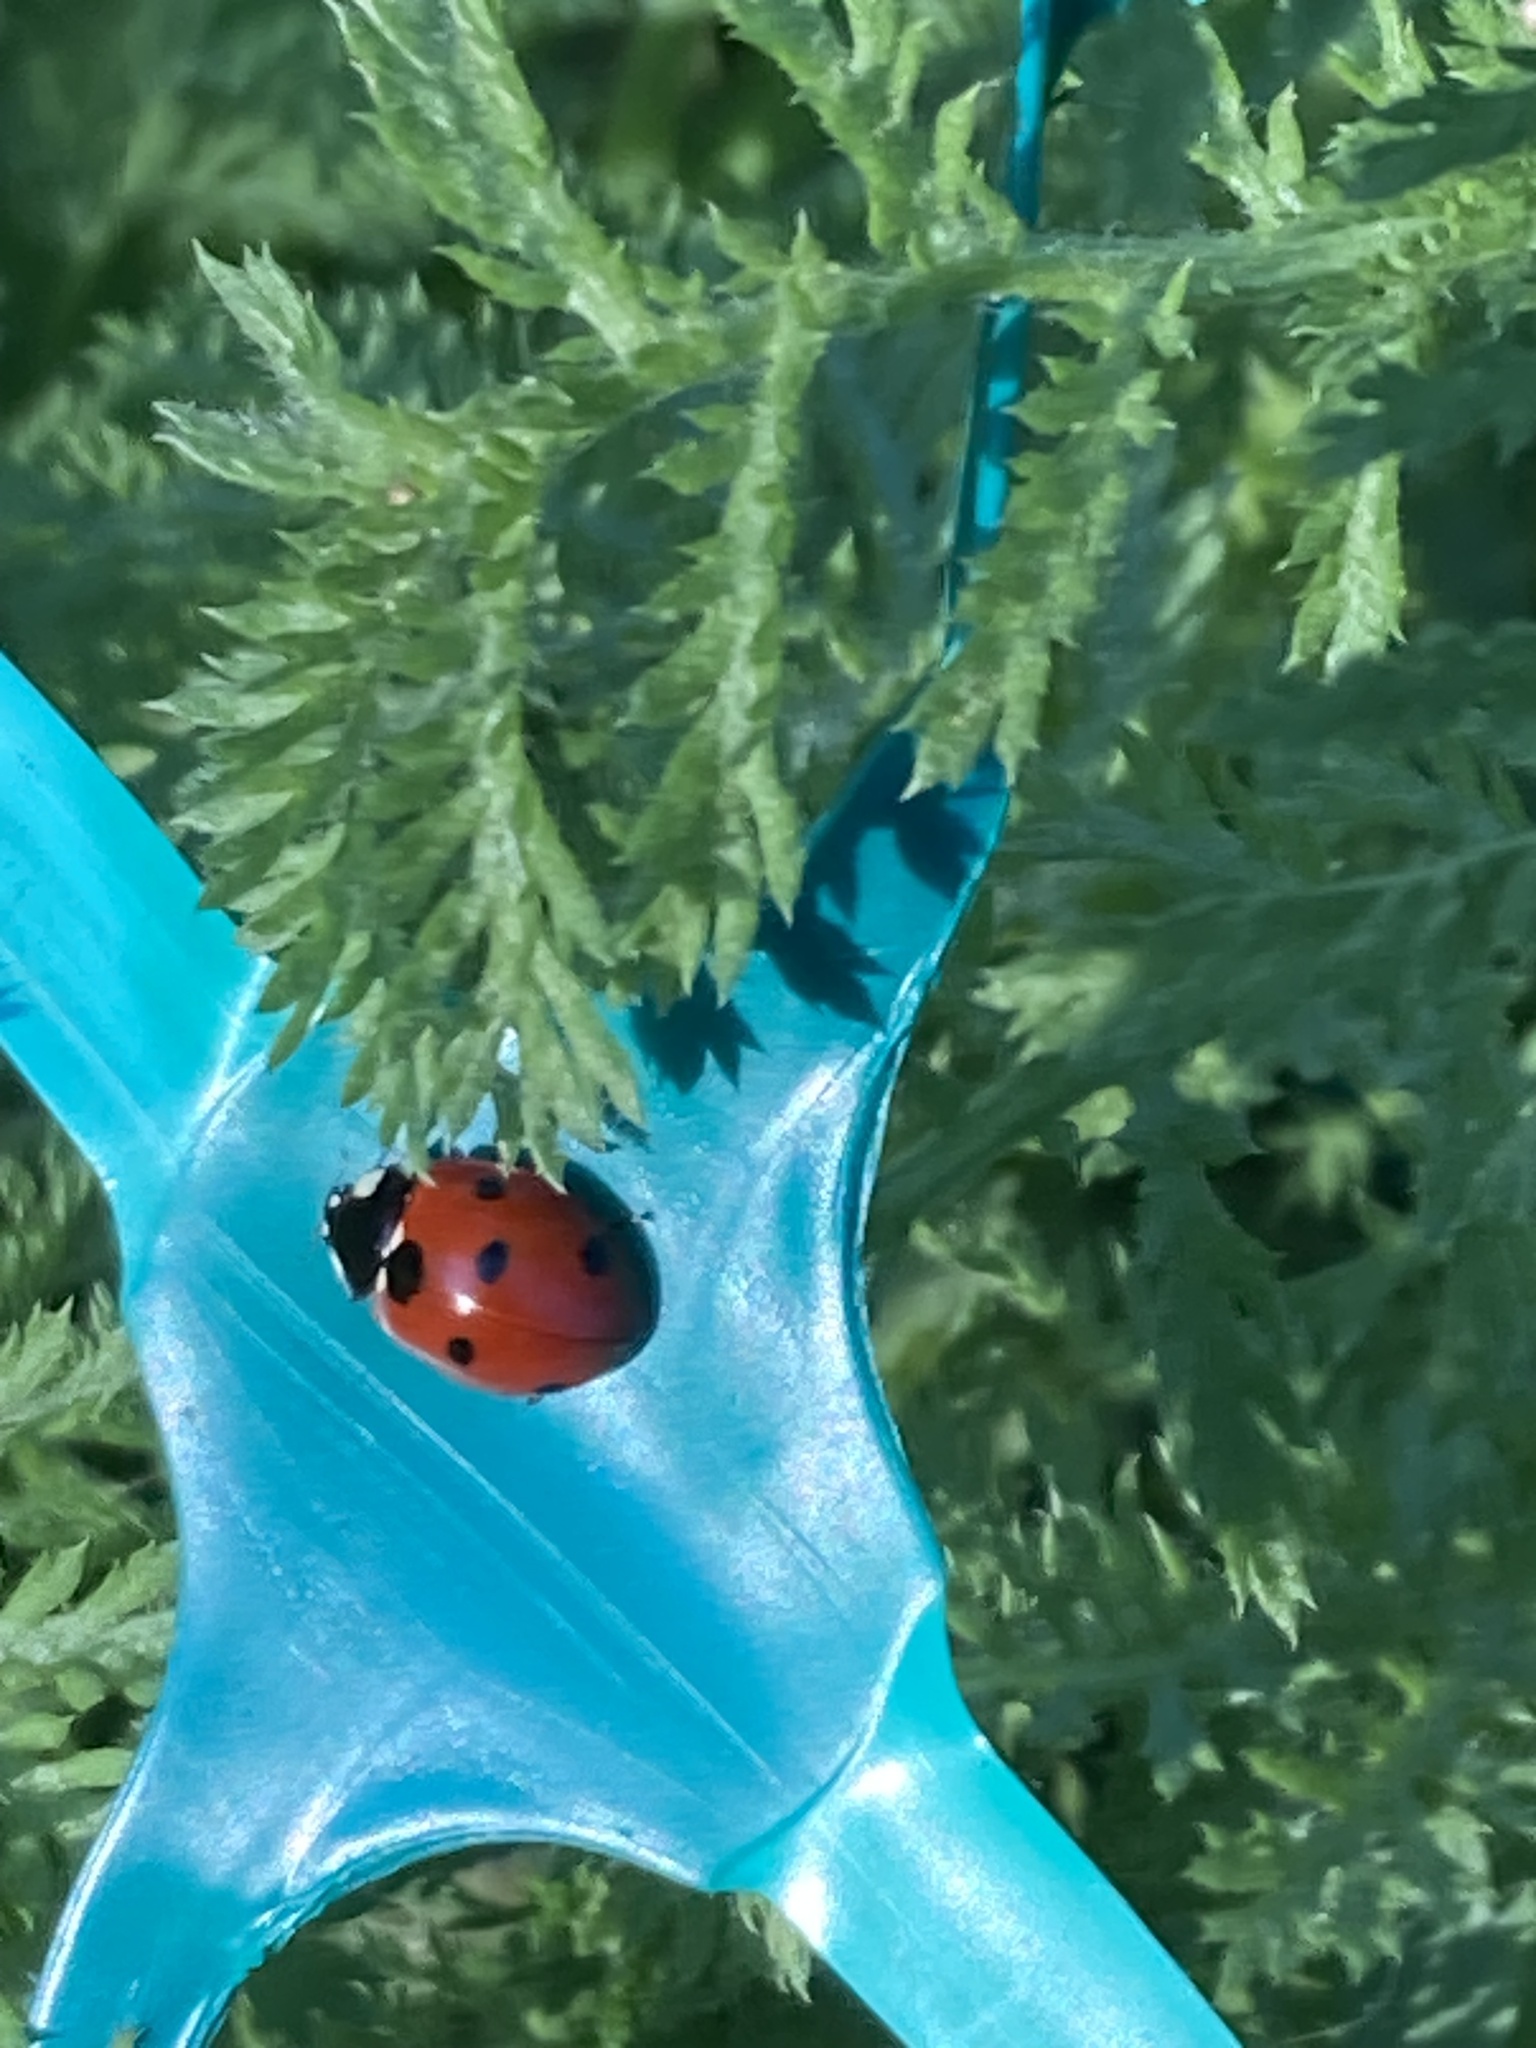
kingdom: Animalia
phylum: Arthropoda
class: Insecta
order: Coleoptera
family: Coccinellidae
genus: Coccinella
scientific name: Coccinella septempunctata
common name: Sevenspotted lady beetle
